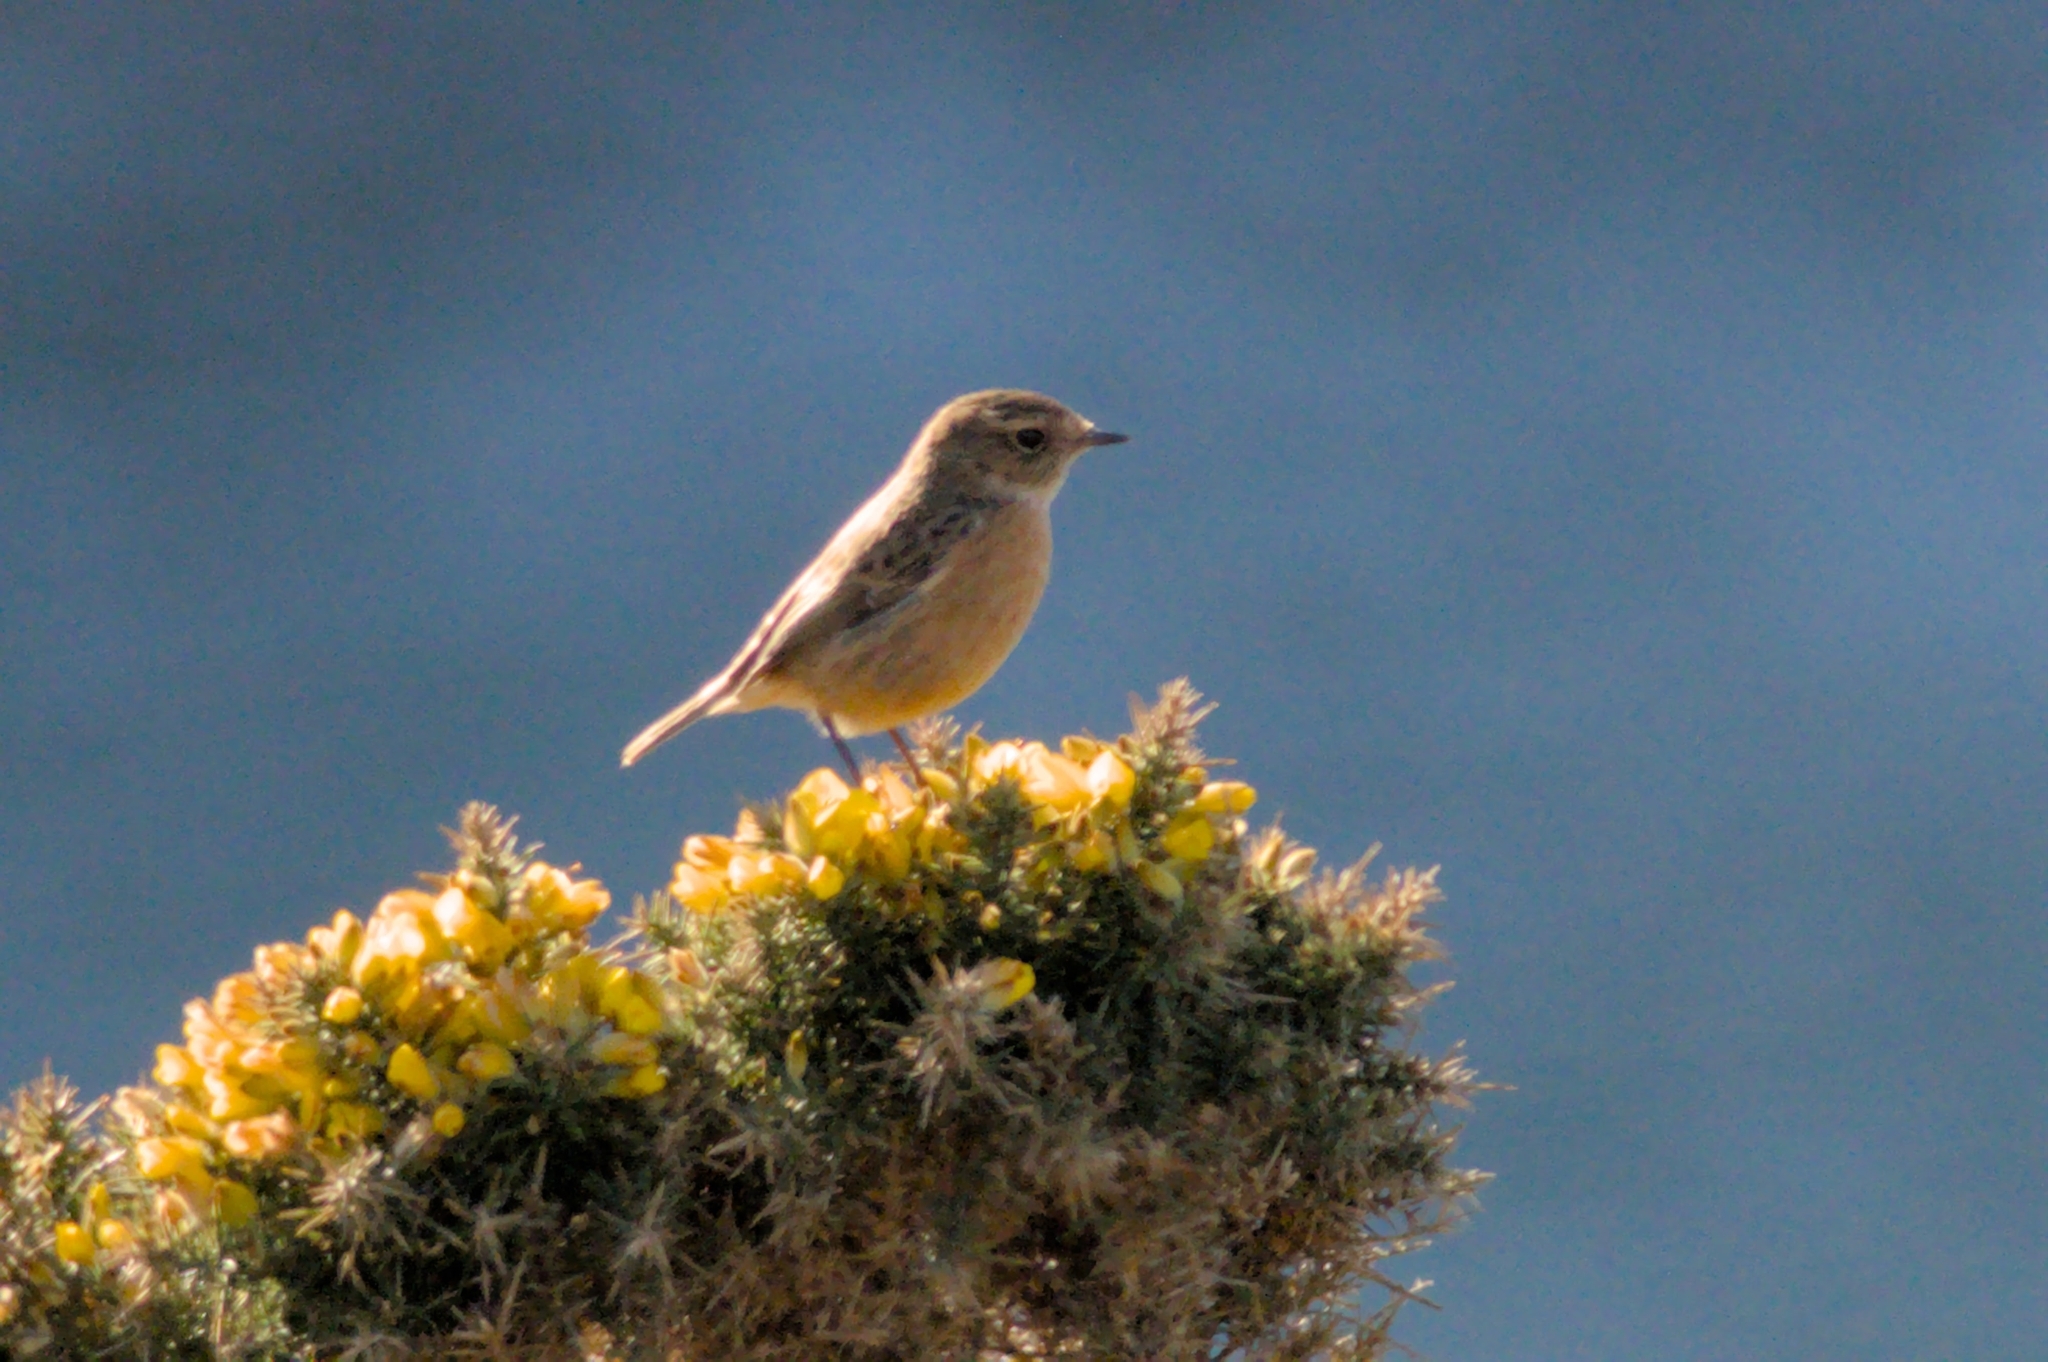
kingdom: Animalia
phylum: Chordata
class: Aves
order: Passeriformes
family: Muscicapidae
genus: Saxicola
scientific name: Saxicola rubicola
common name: European stonechat
